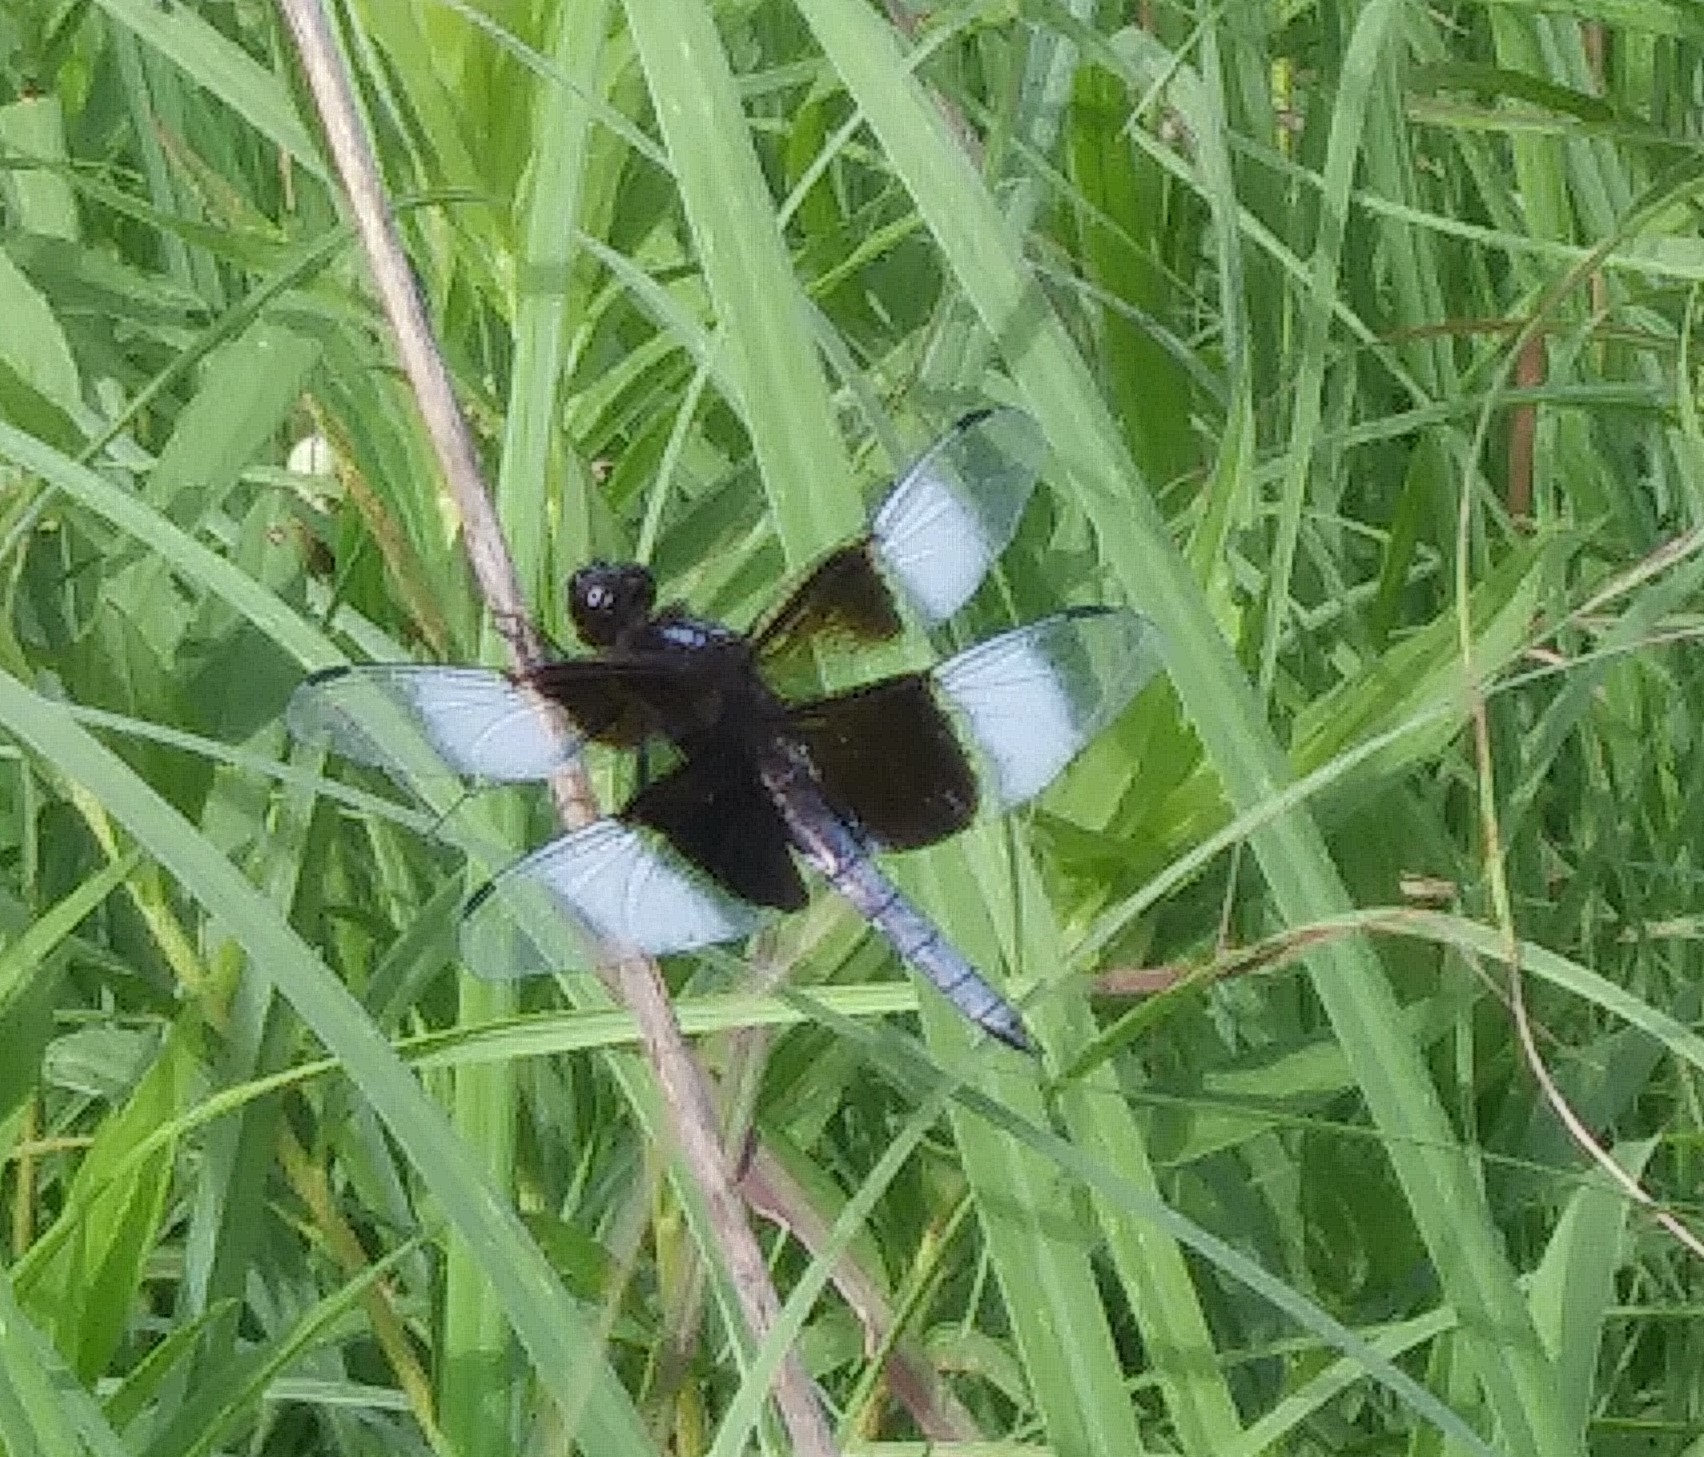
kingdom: Animalia
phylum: Arthropoda
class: Insecta
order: Odonata
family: Libellulidae
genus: Libellula
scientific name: Libellula luctuosa
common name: Widow skimmer
